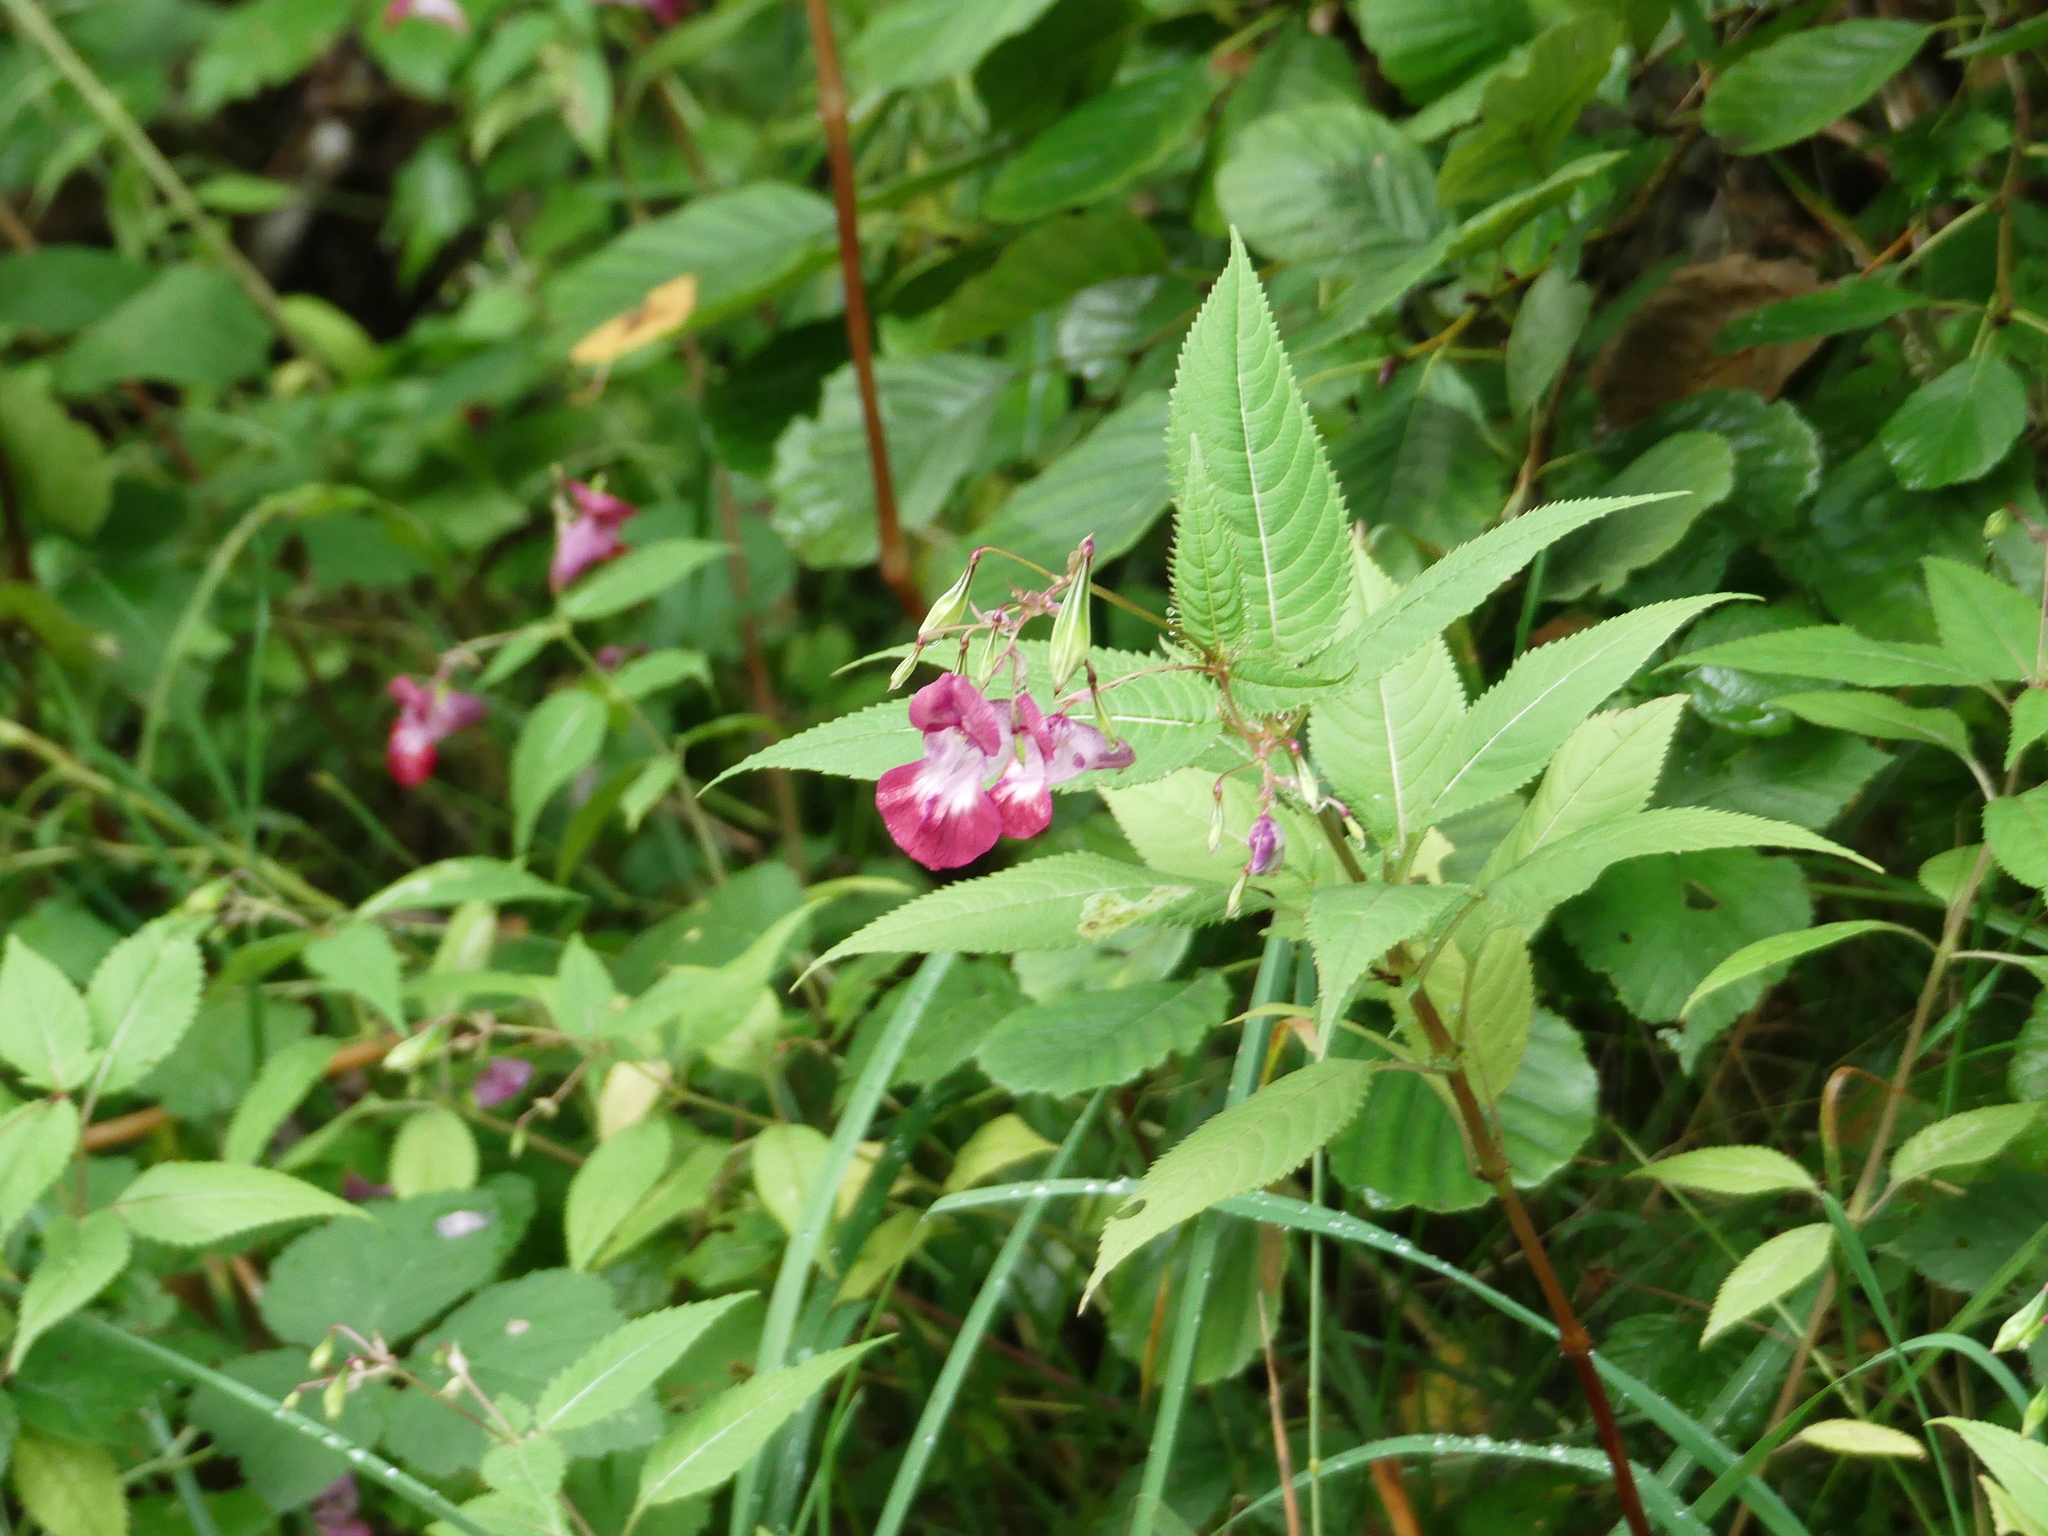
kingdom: Plantae
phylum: Tracheophyta
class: Magnoliopsida
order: Ericales
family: Balsaminaceae
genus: Impatiens
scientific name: Impatiens balfourii
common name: Balfour's touch-me-not
